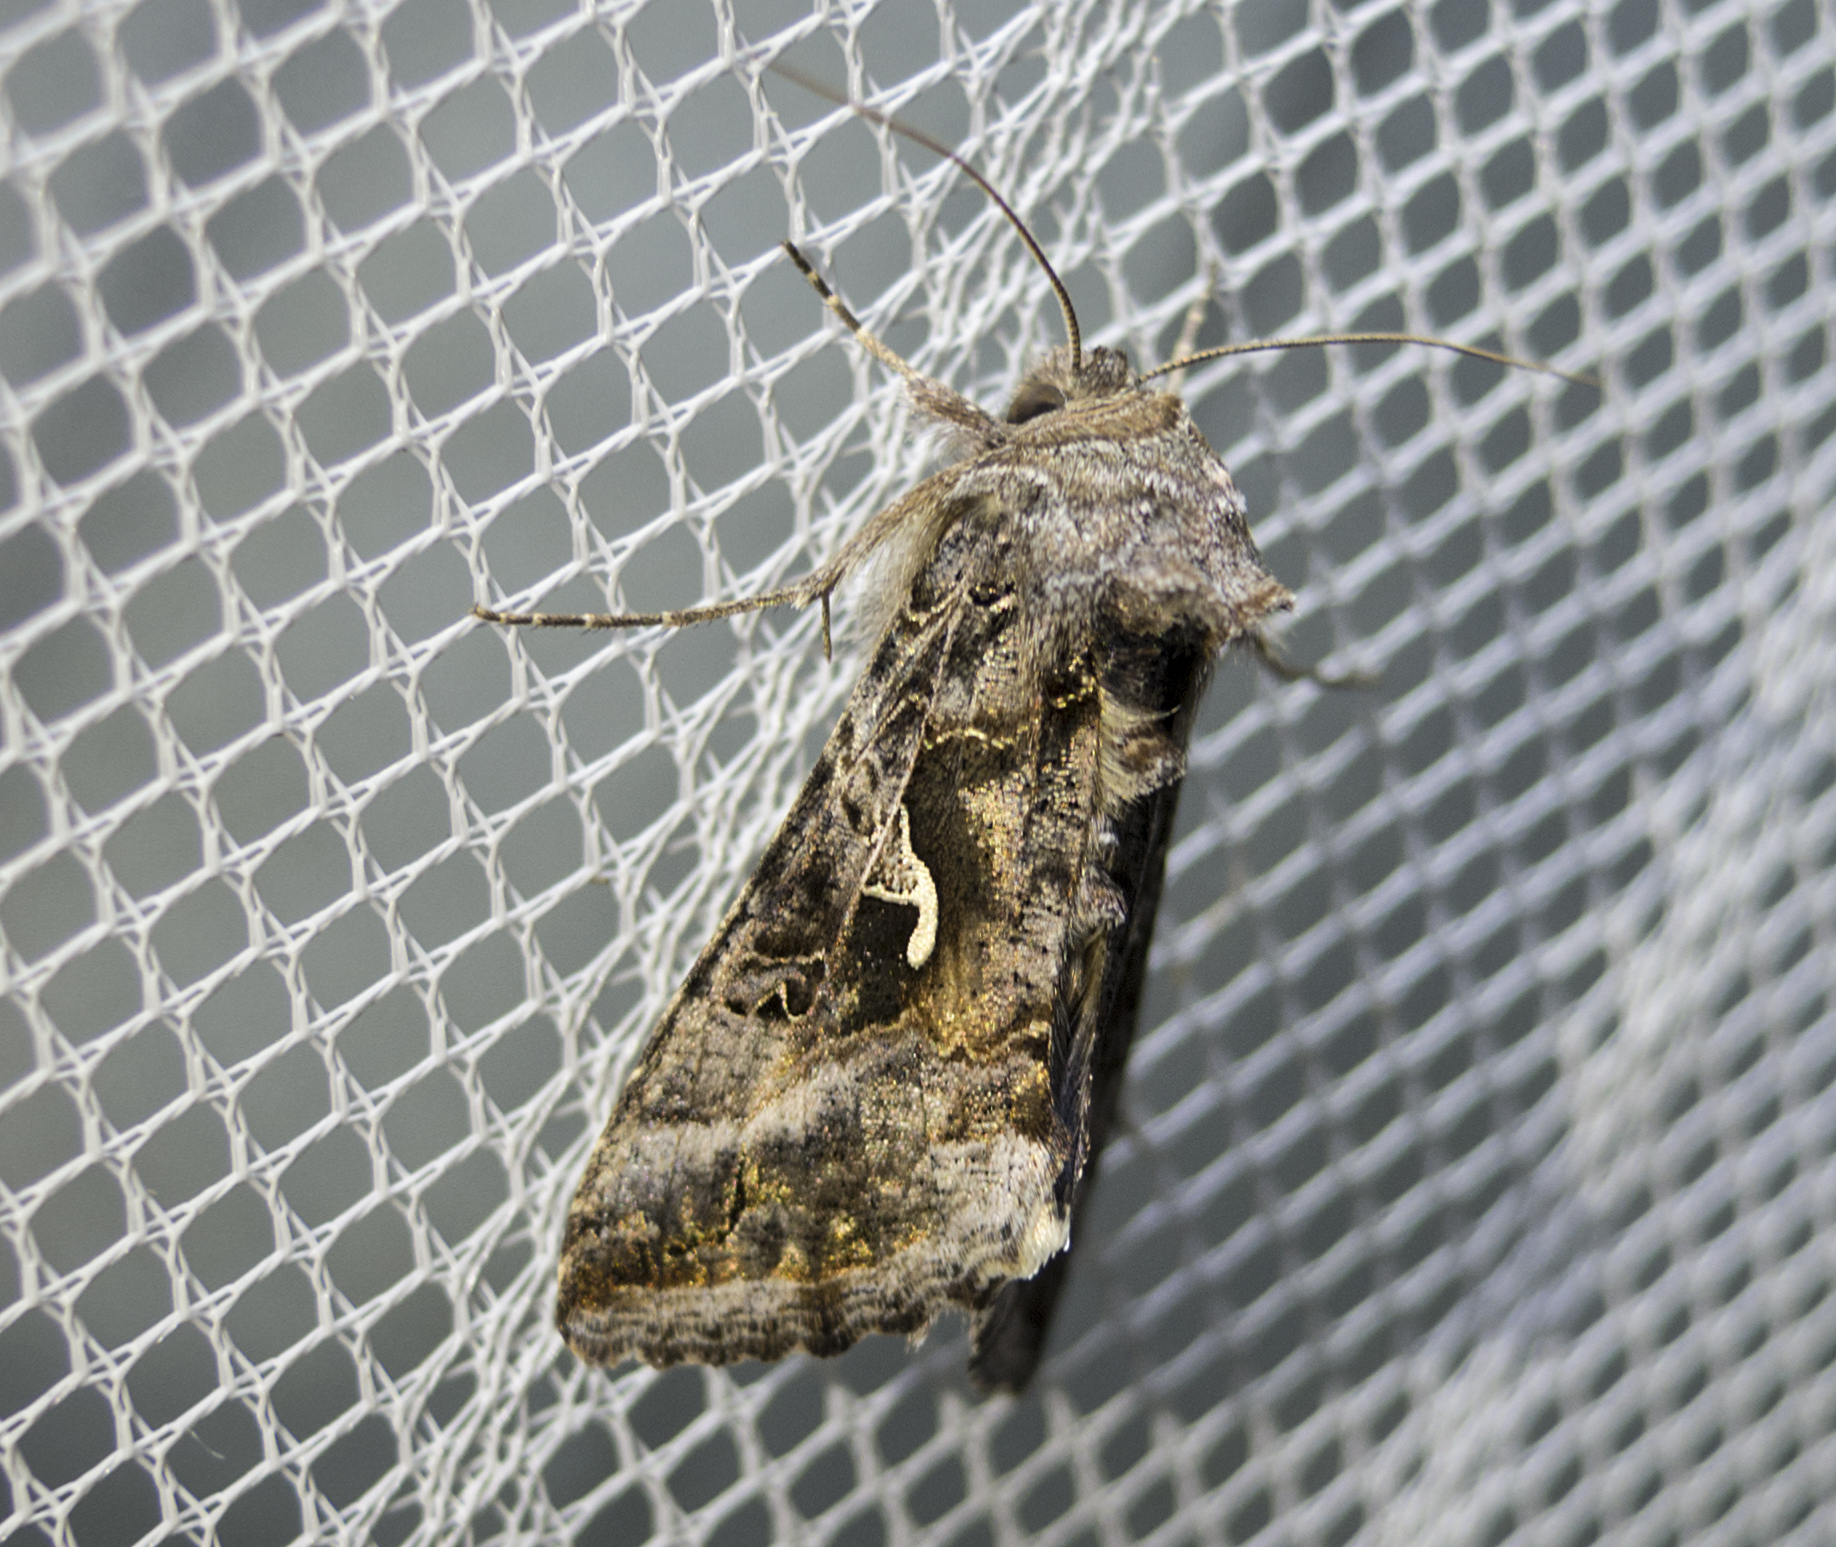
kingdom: Animalia
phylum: Arthropoda
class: Insecta
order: Lepidoptera
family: Noctuidae
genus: Autographa
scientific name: Autographa gamma
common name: Silver y
